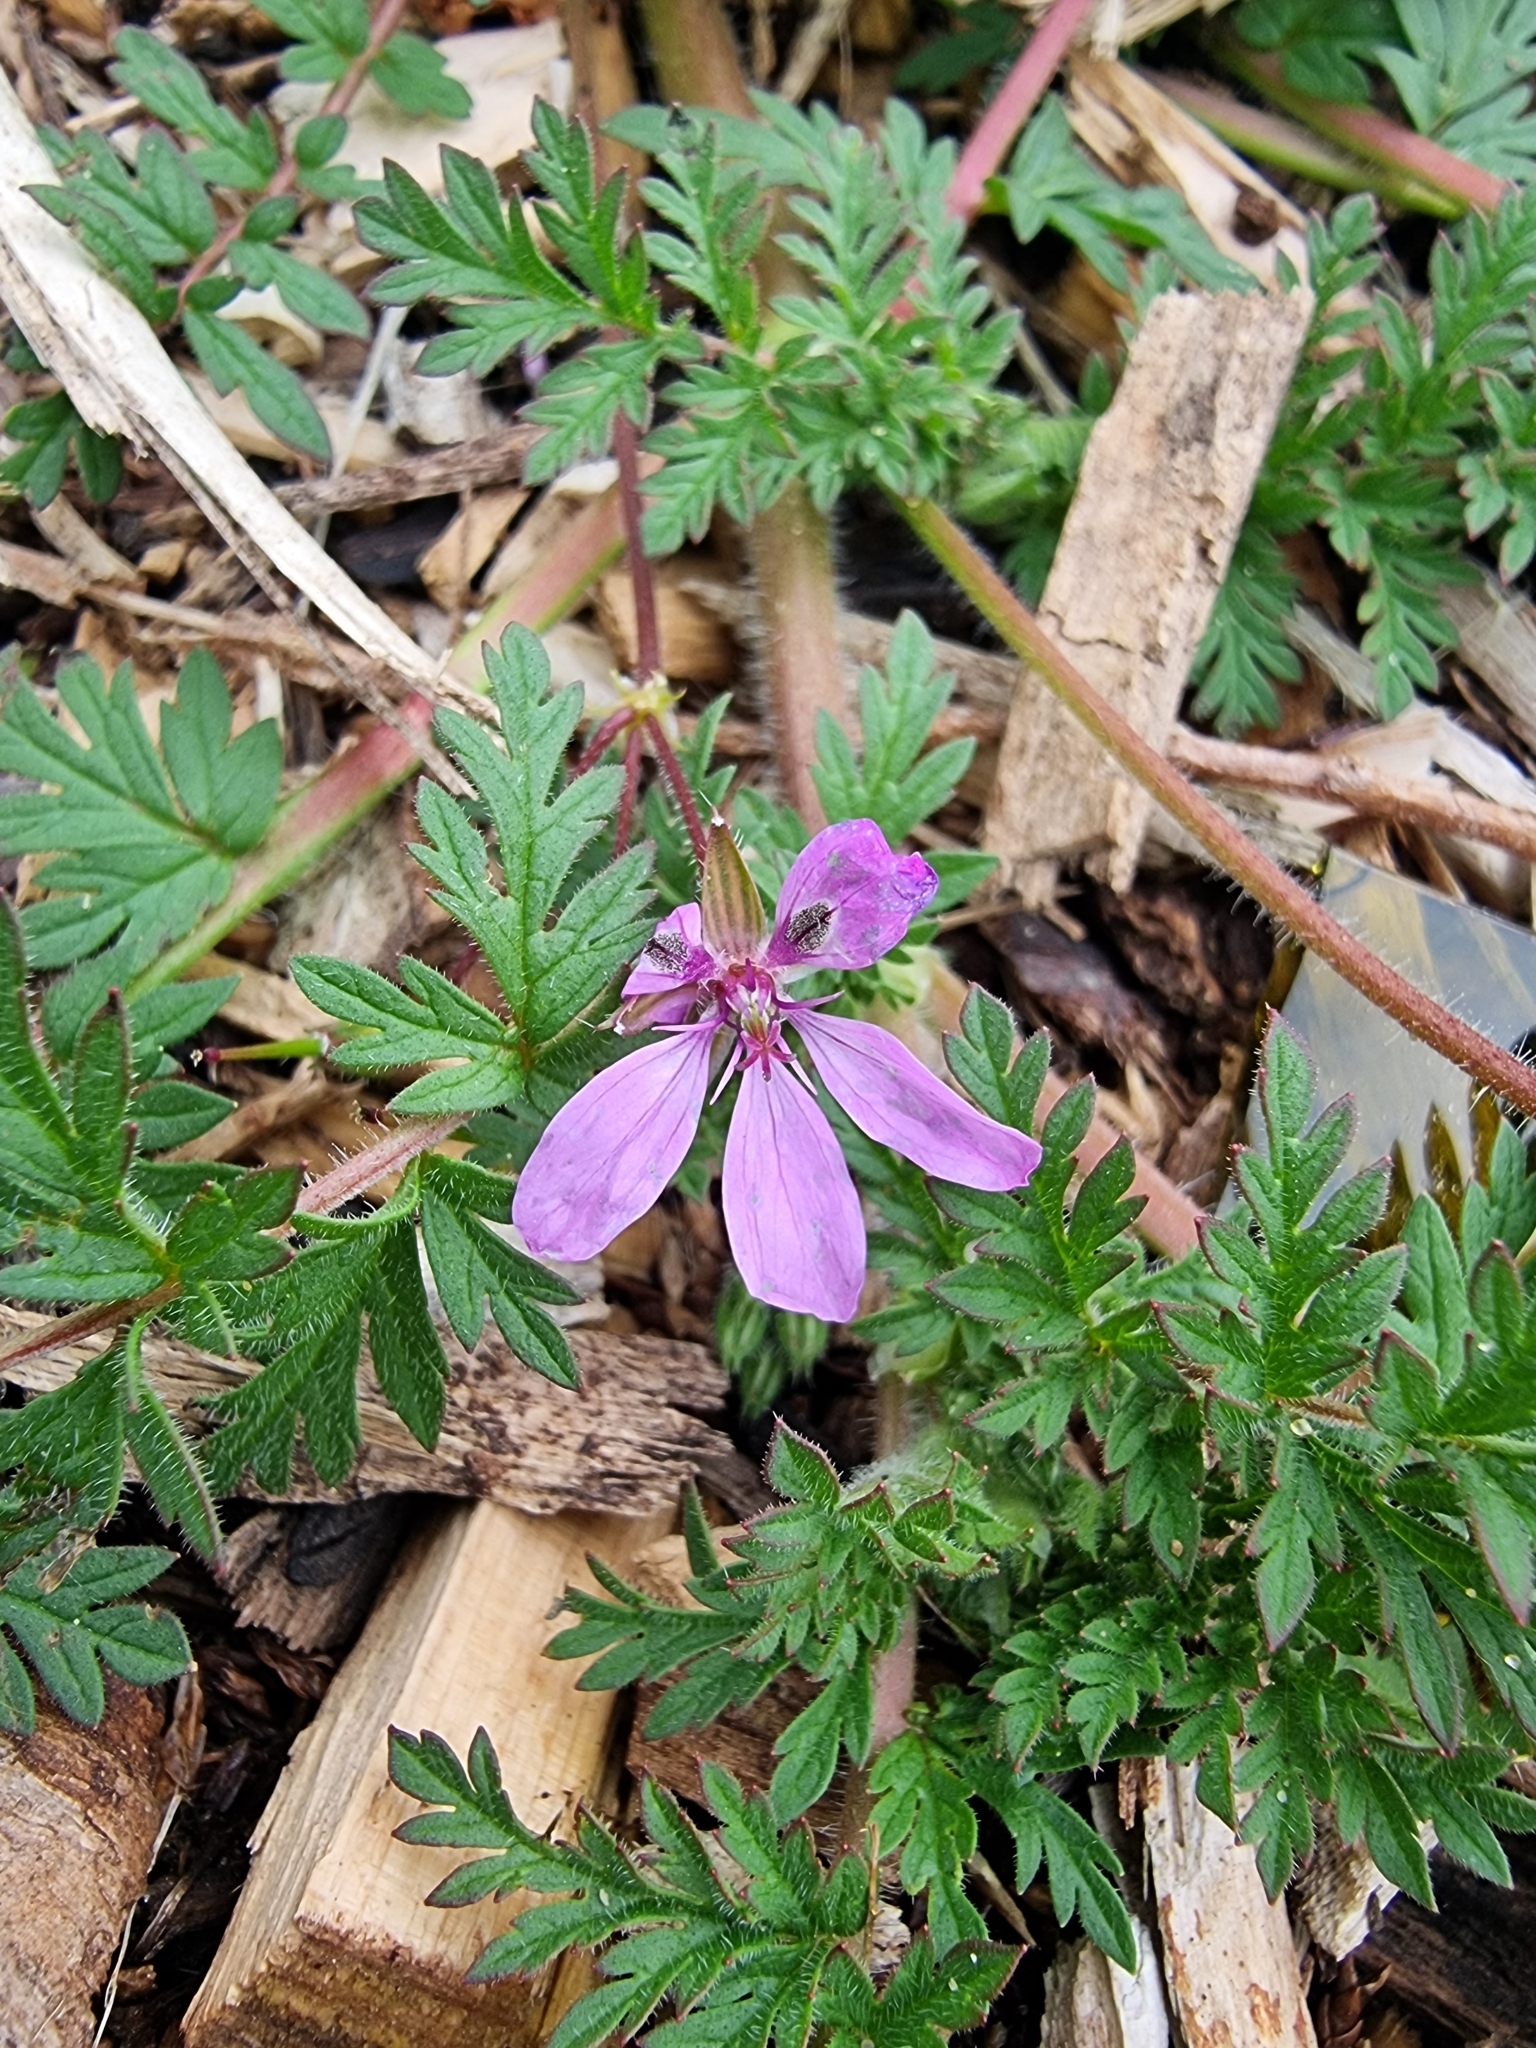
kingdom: Plantae
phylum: Tracheophyta
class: Magnoliopsida
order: Geraniales
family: Geraniaceae
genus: Erodium
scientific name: Erodium cicutarium
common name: Common stork's-bill
